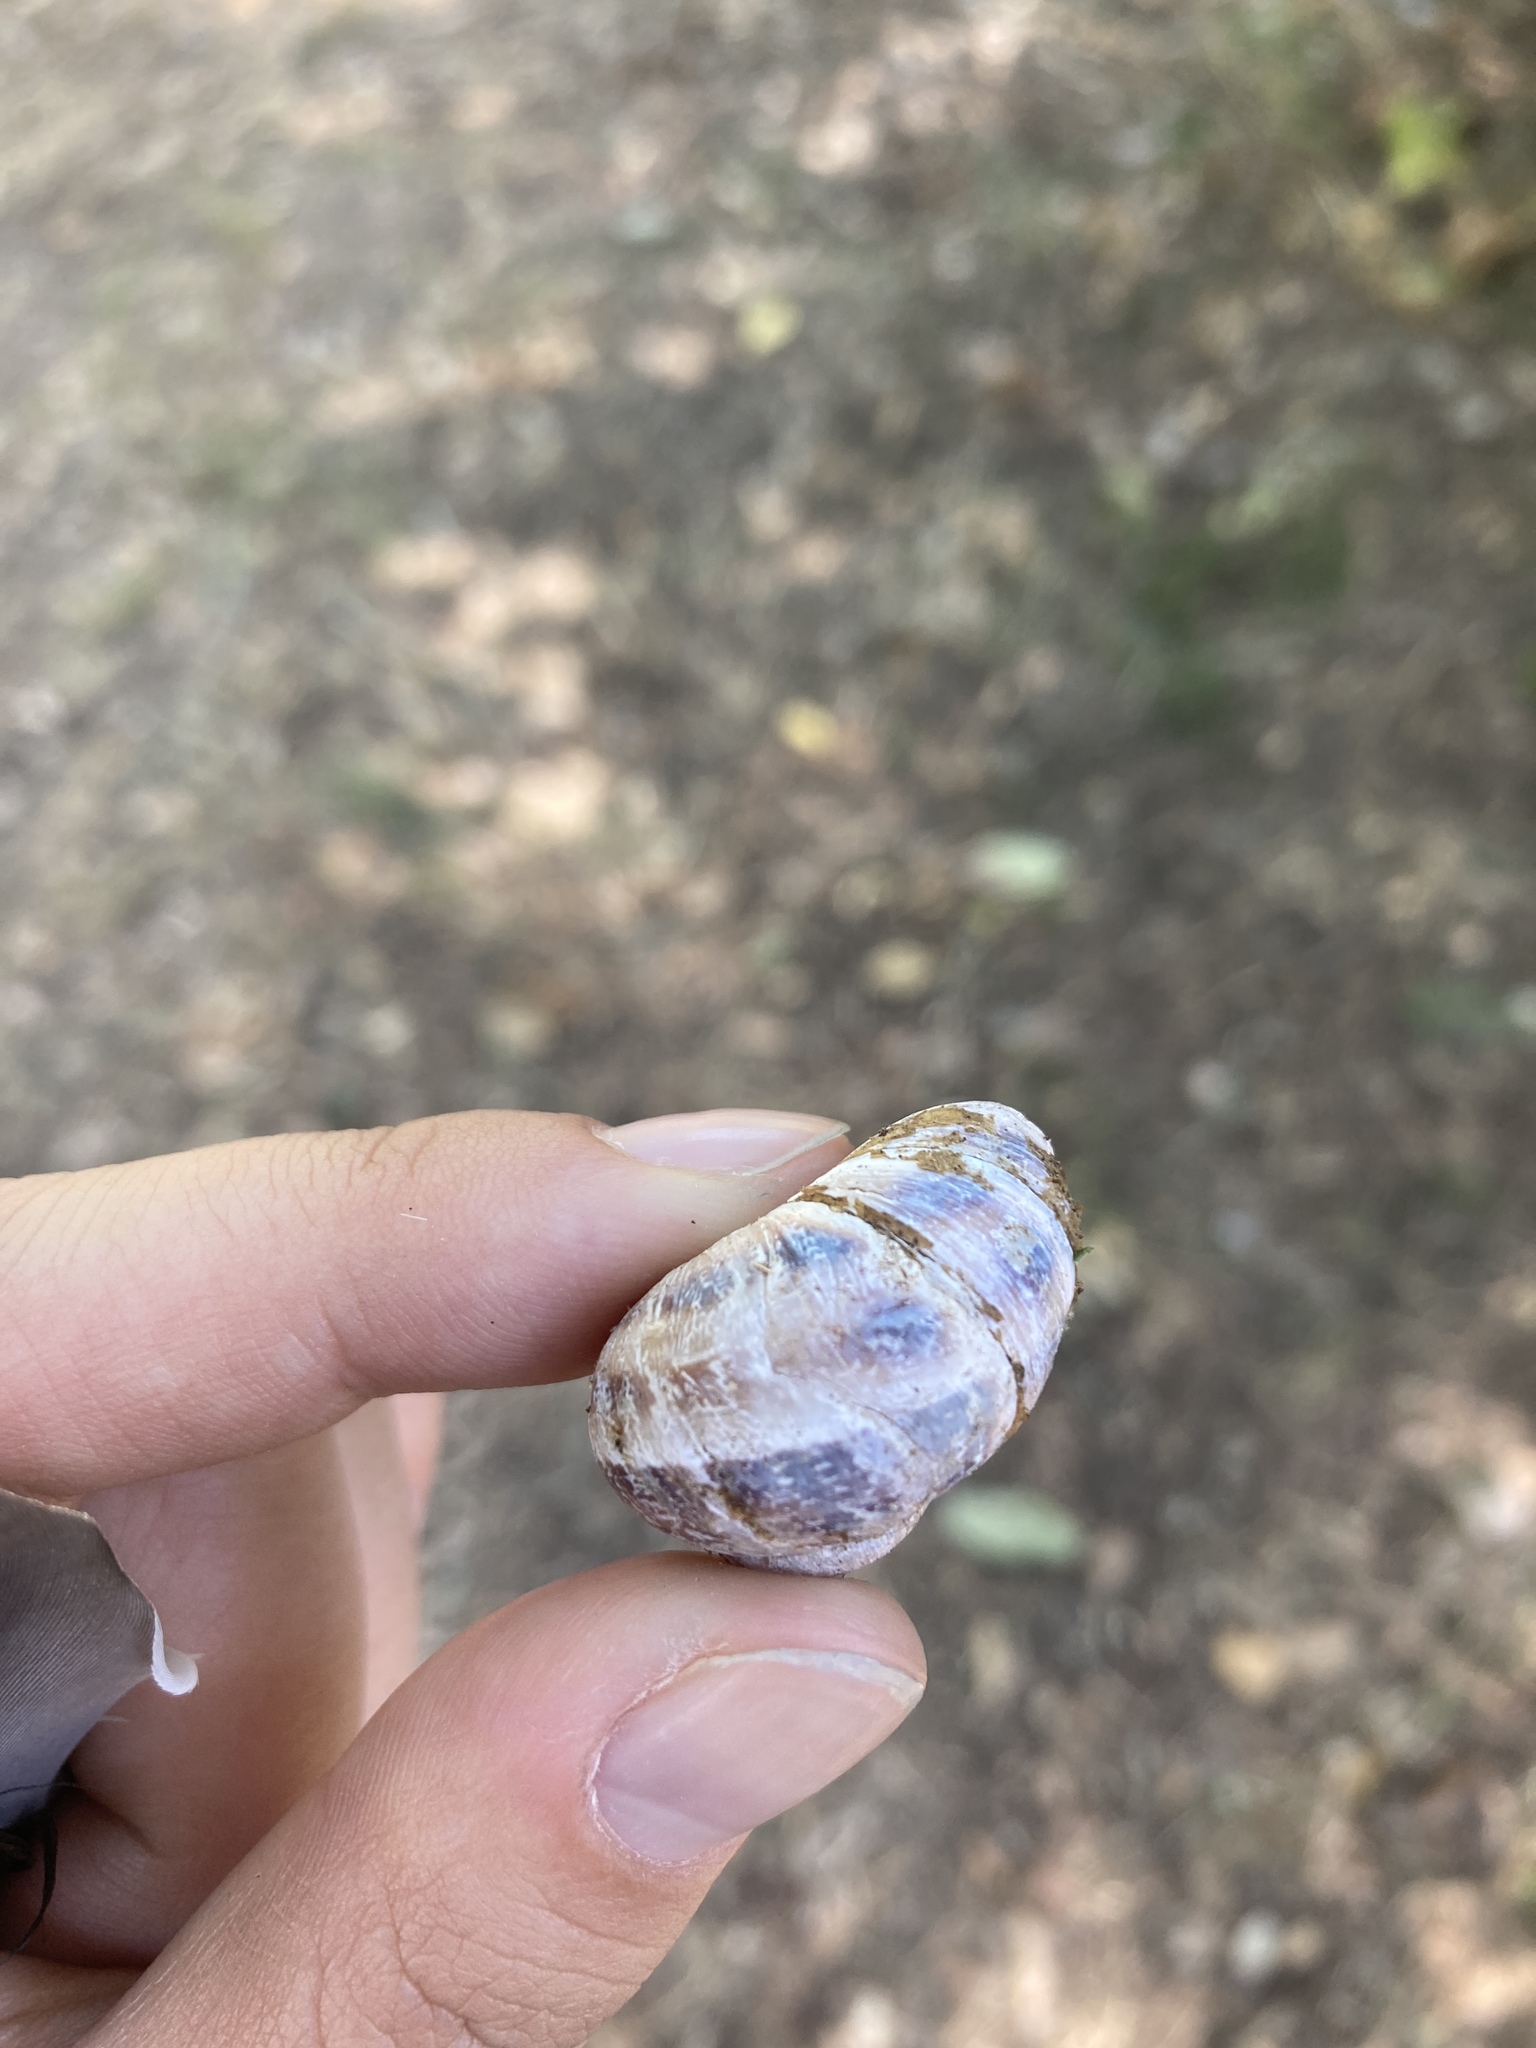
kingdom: Animalia
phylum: Mollusca
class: Gastropoda
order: Stylommatophora
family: Helicidae
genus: Cornu
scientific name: Cornu aspersum
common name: Brown garden snail
